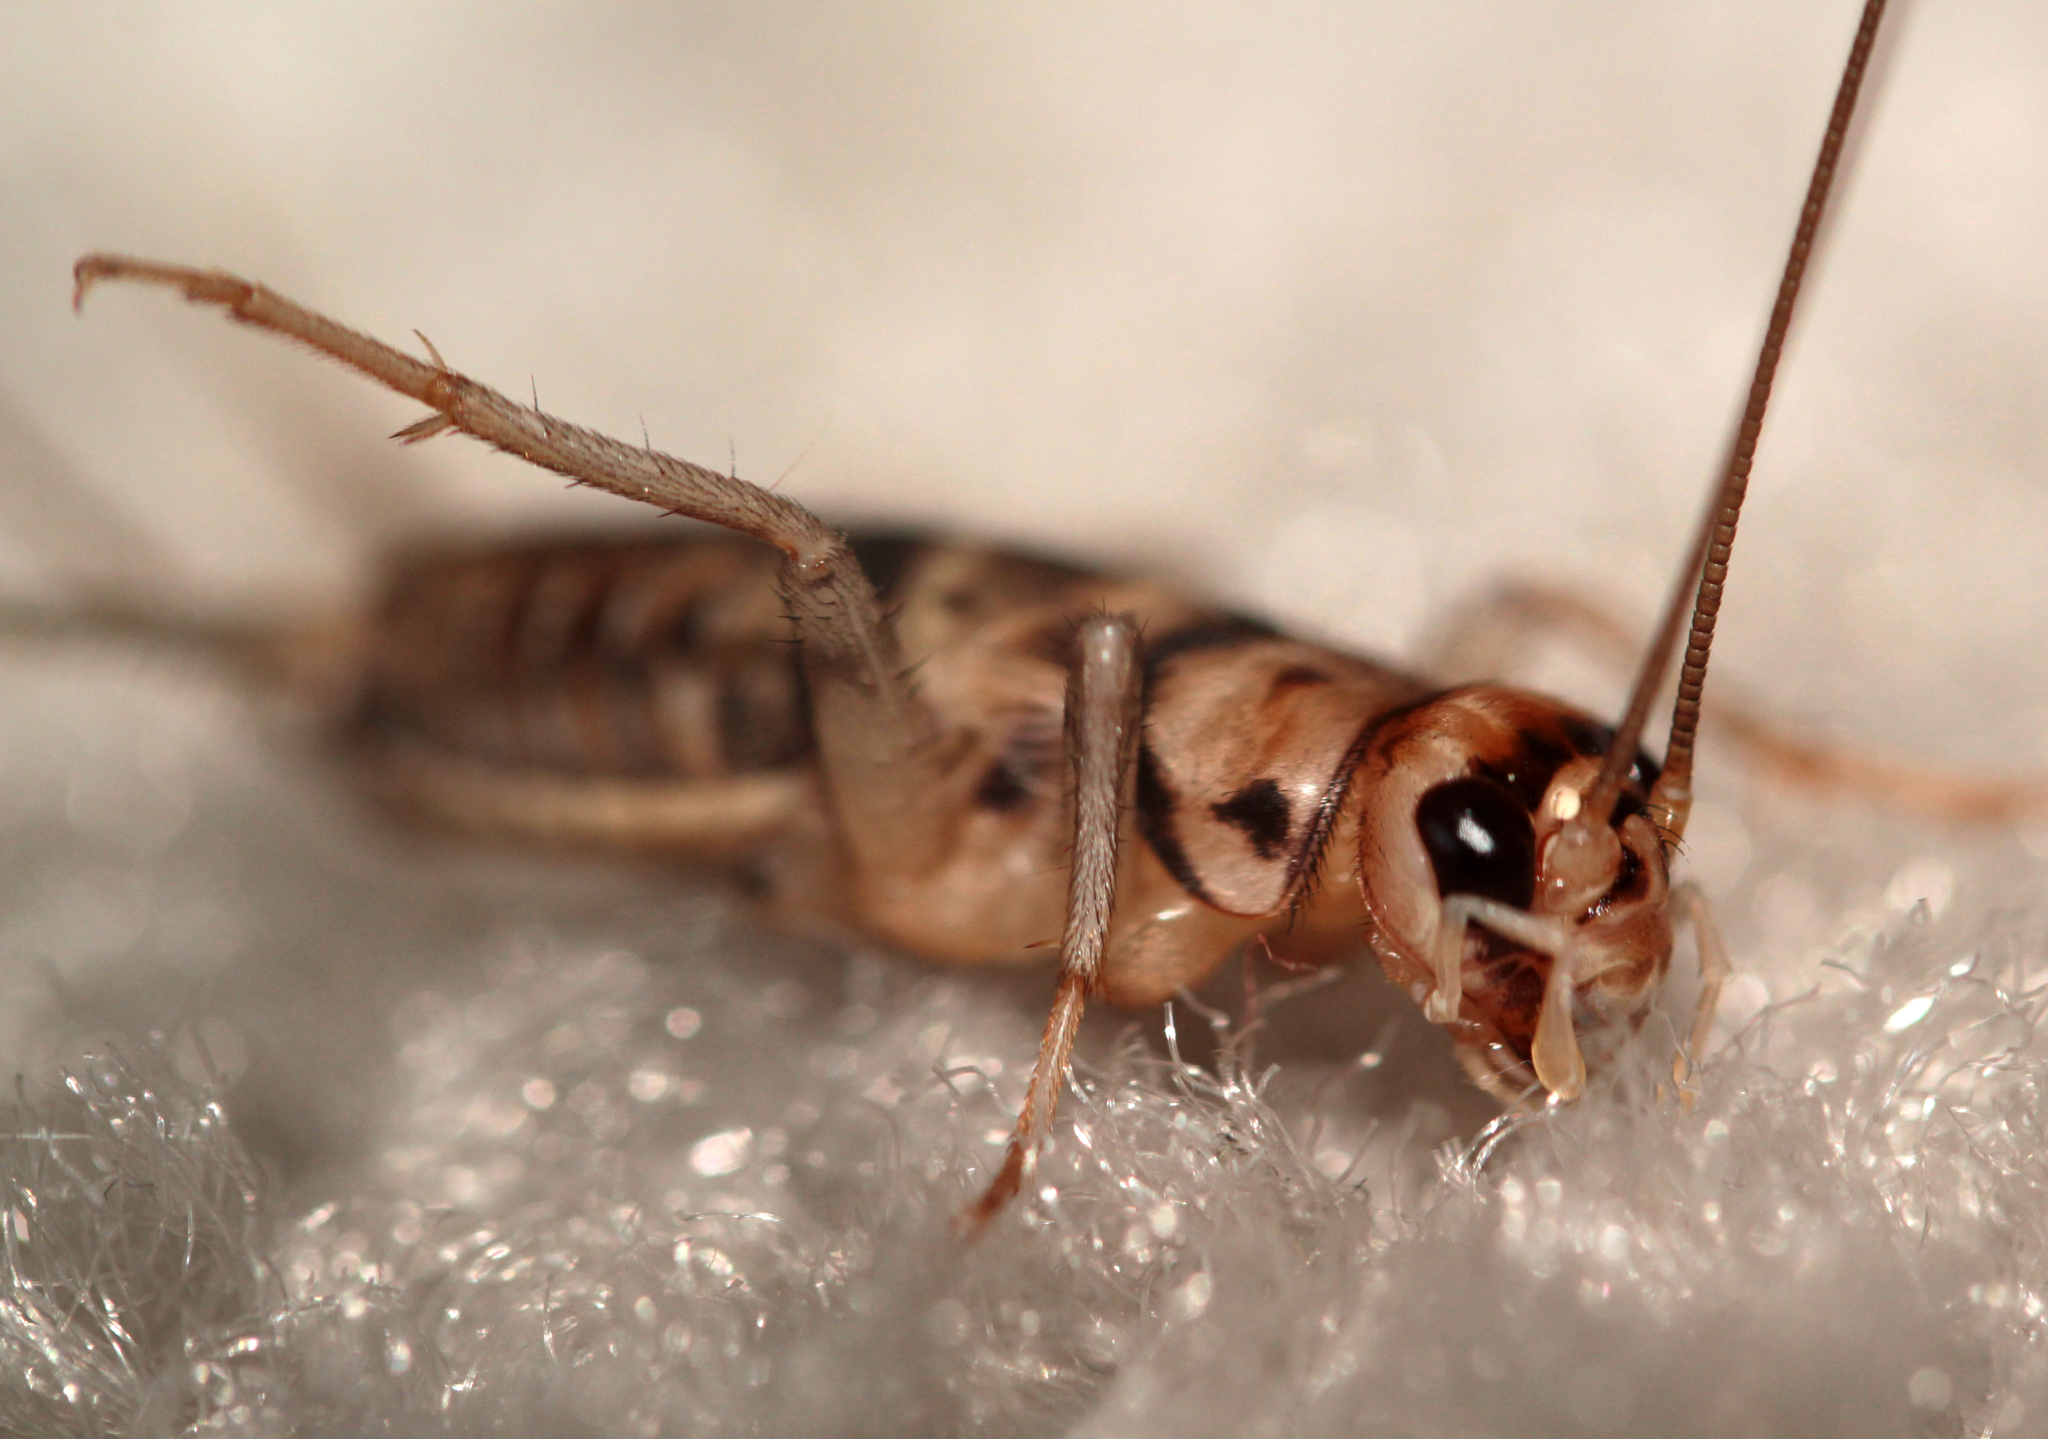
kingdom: Animalia
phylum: Arthropoda
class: Insecta
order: Orthoptera
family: Gryllidae
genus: Gryllodes
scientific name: Gryllodes sigillatus
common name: Tropical house cricket
